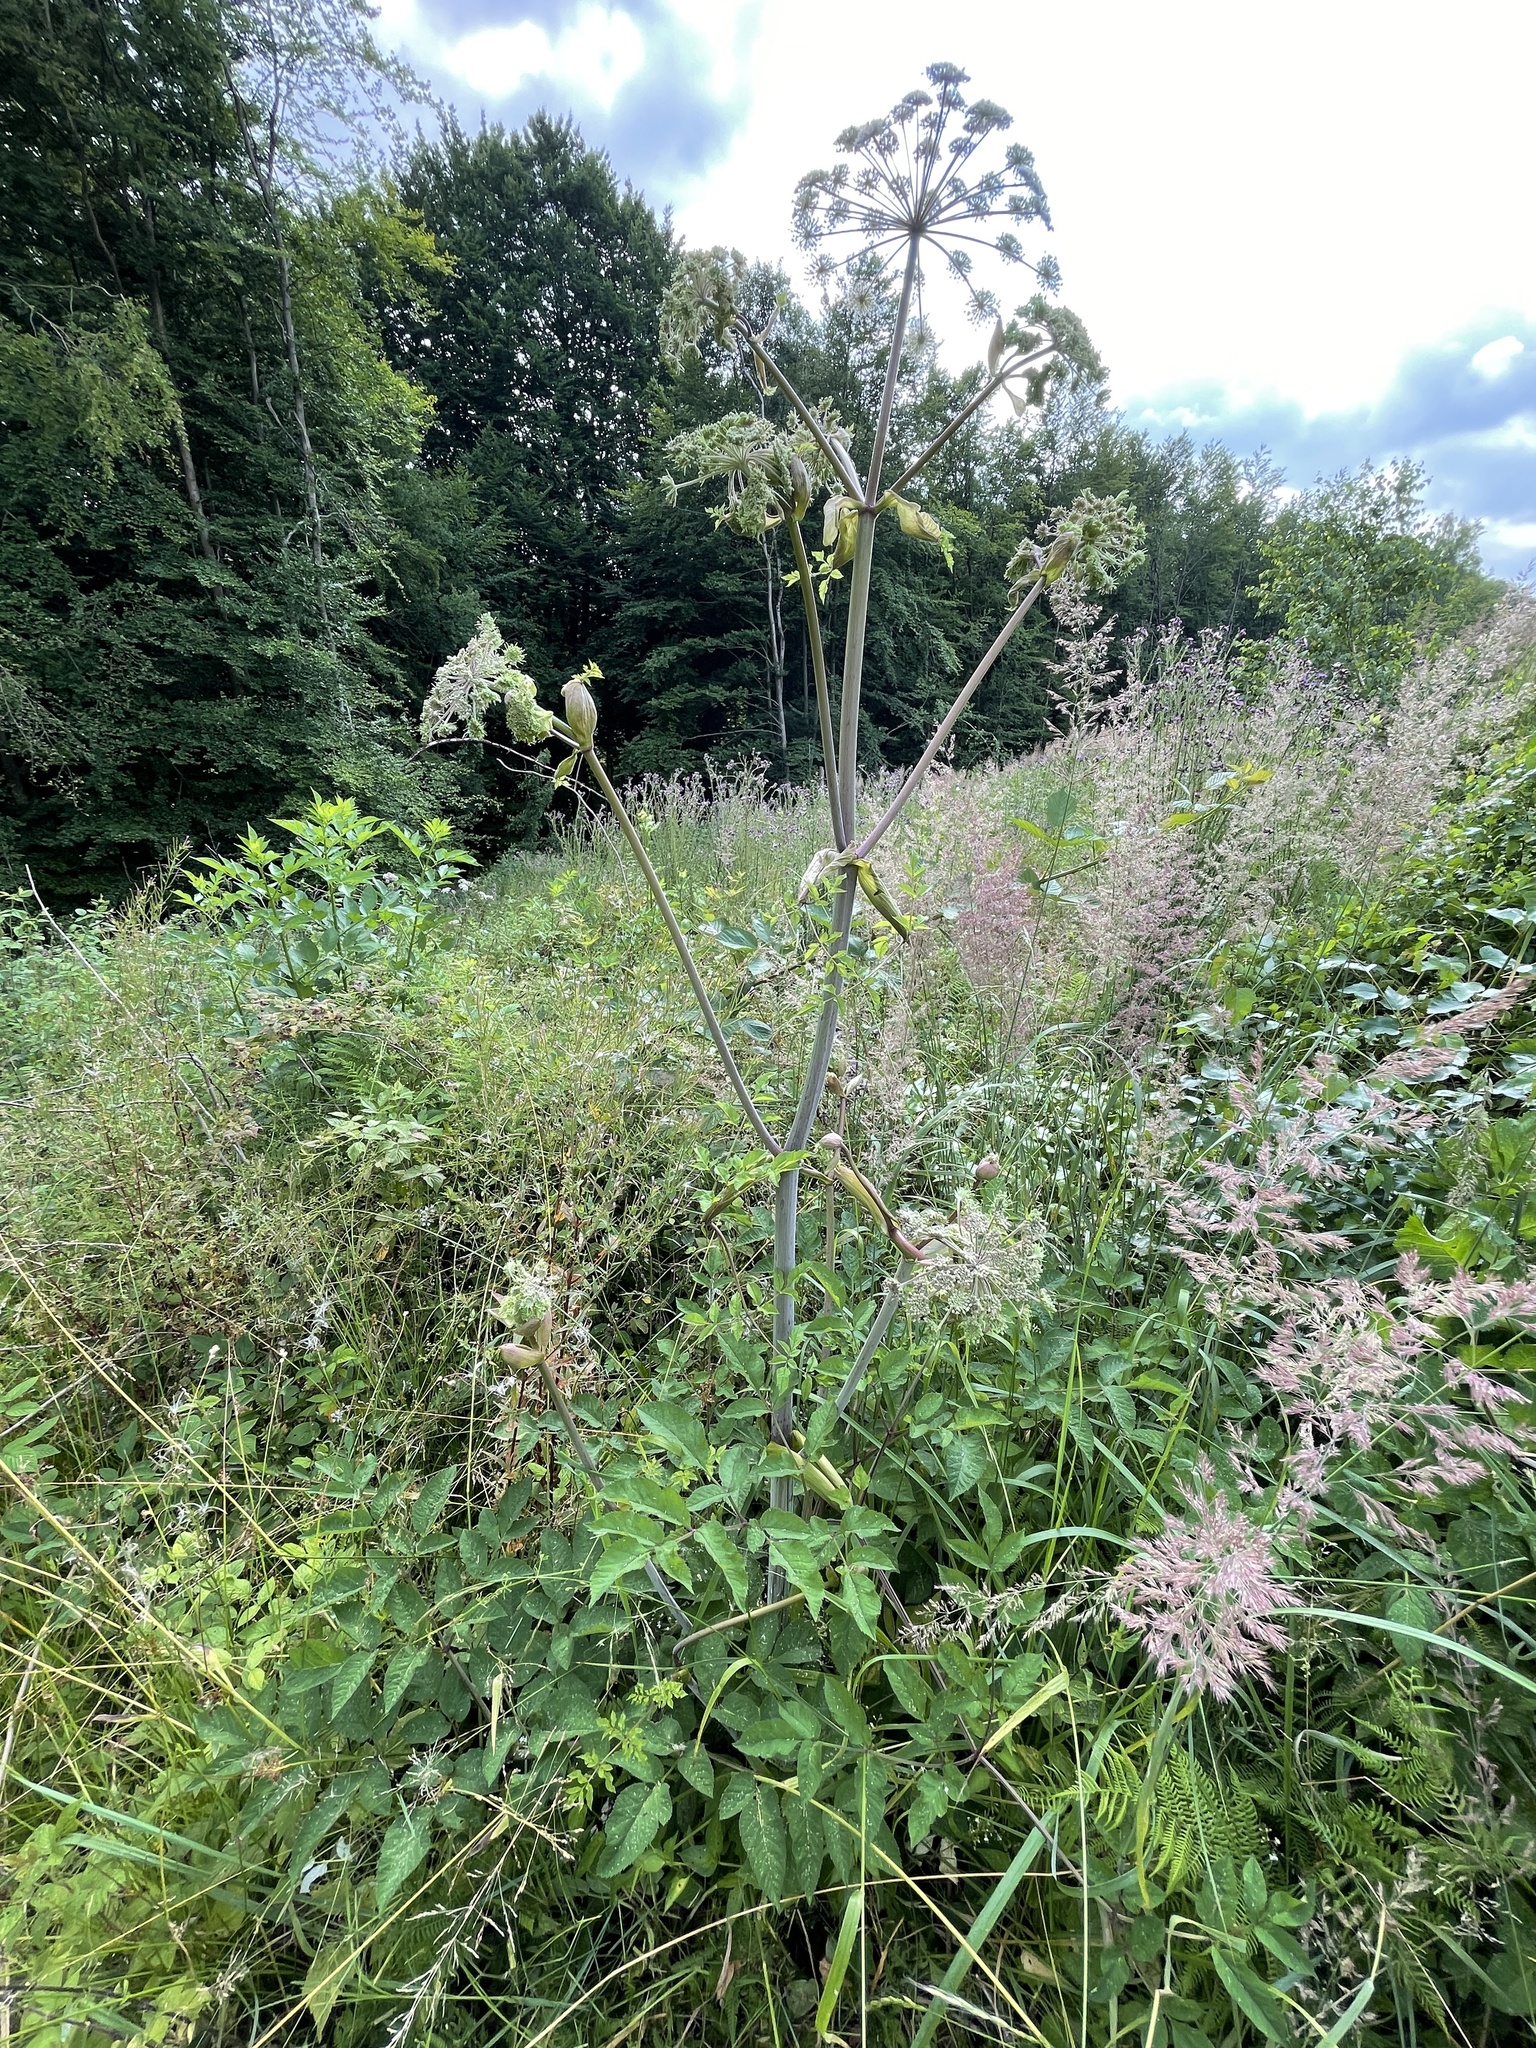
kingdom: Plantae
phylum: Tracheophyta
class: Magnoliopsida
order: Apiales
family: Apiaceae
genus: Angelica
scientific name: Angelica sylvestris
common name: Wild angelica
